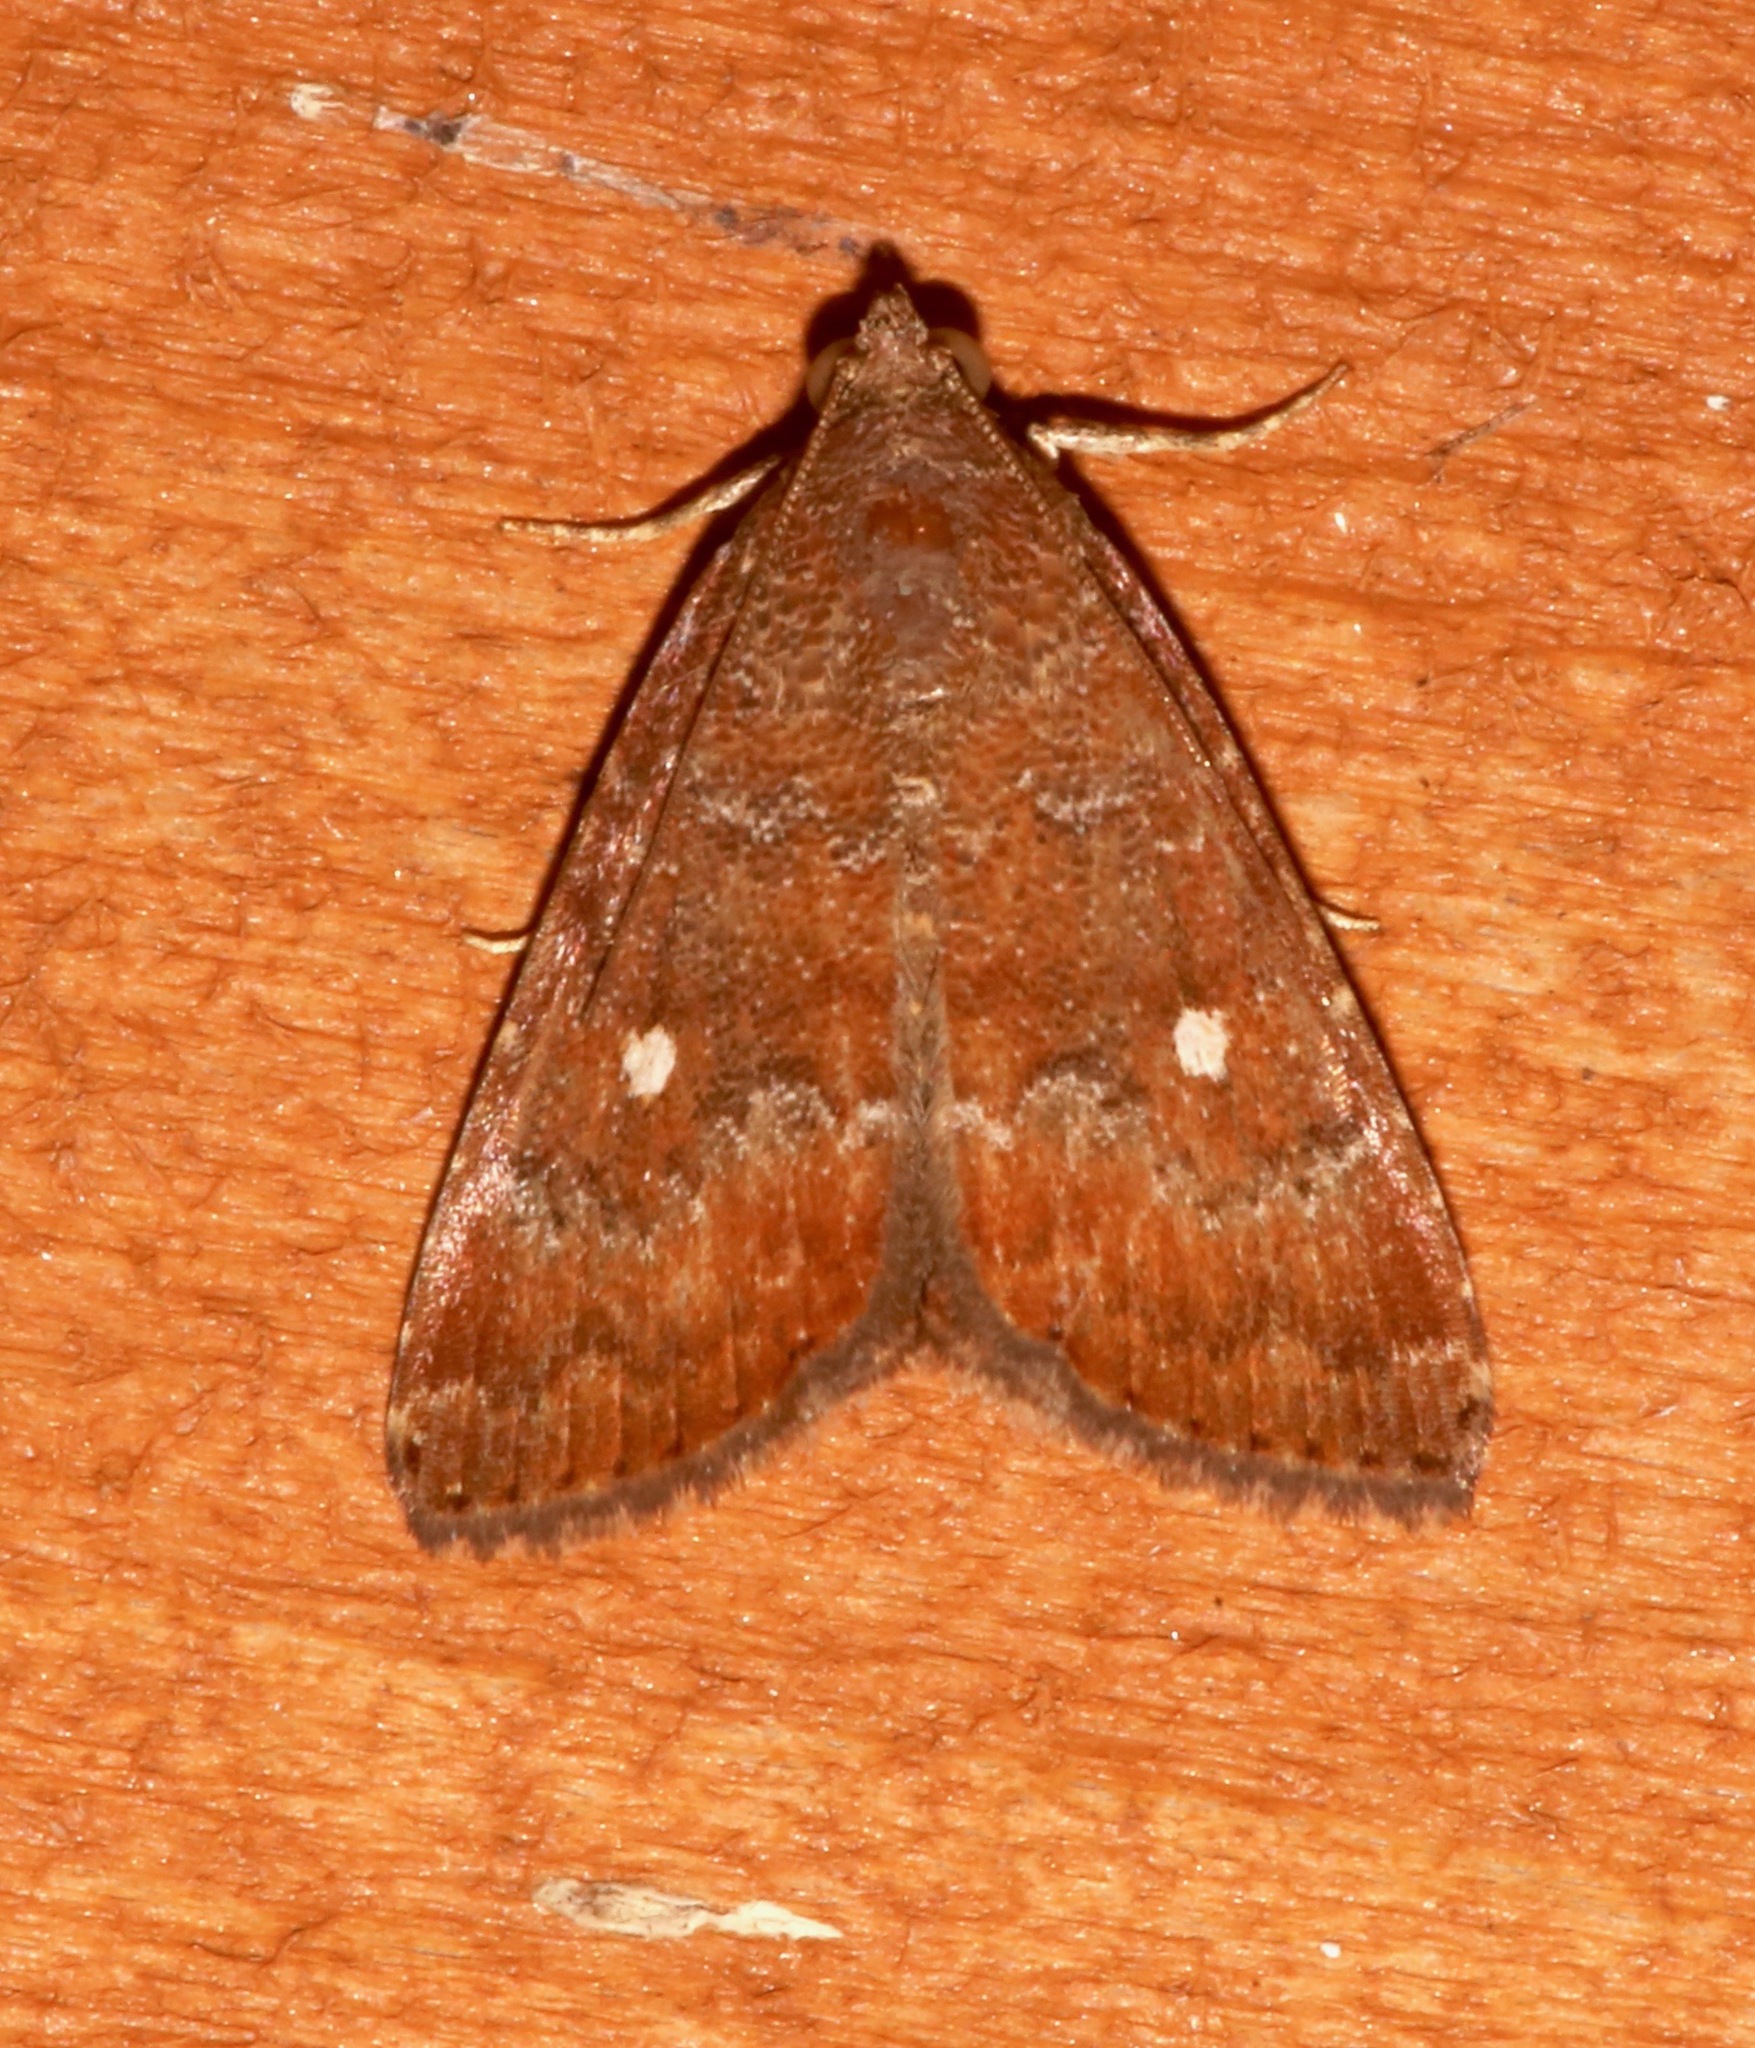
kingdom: Animalia
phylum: Arthropoda
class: Insecta
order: Lepidoptera
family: Noctuidae
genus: Amyna
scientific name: Amyna stricta
